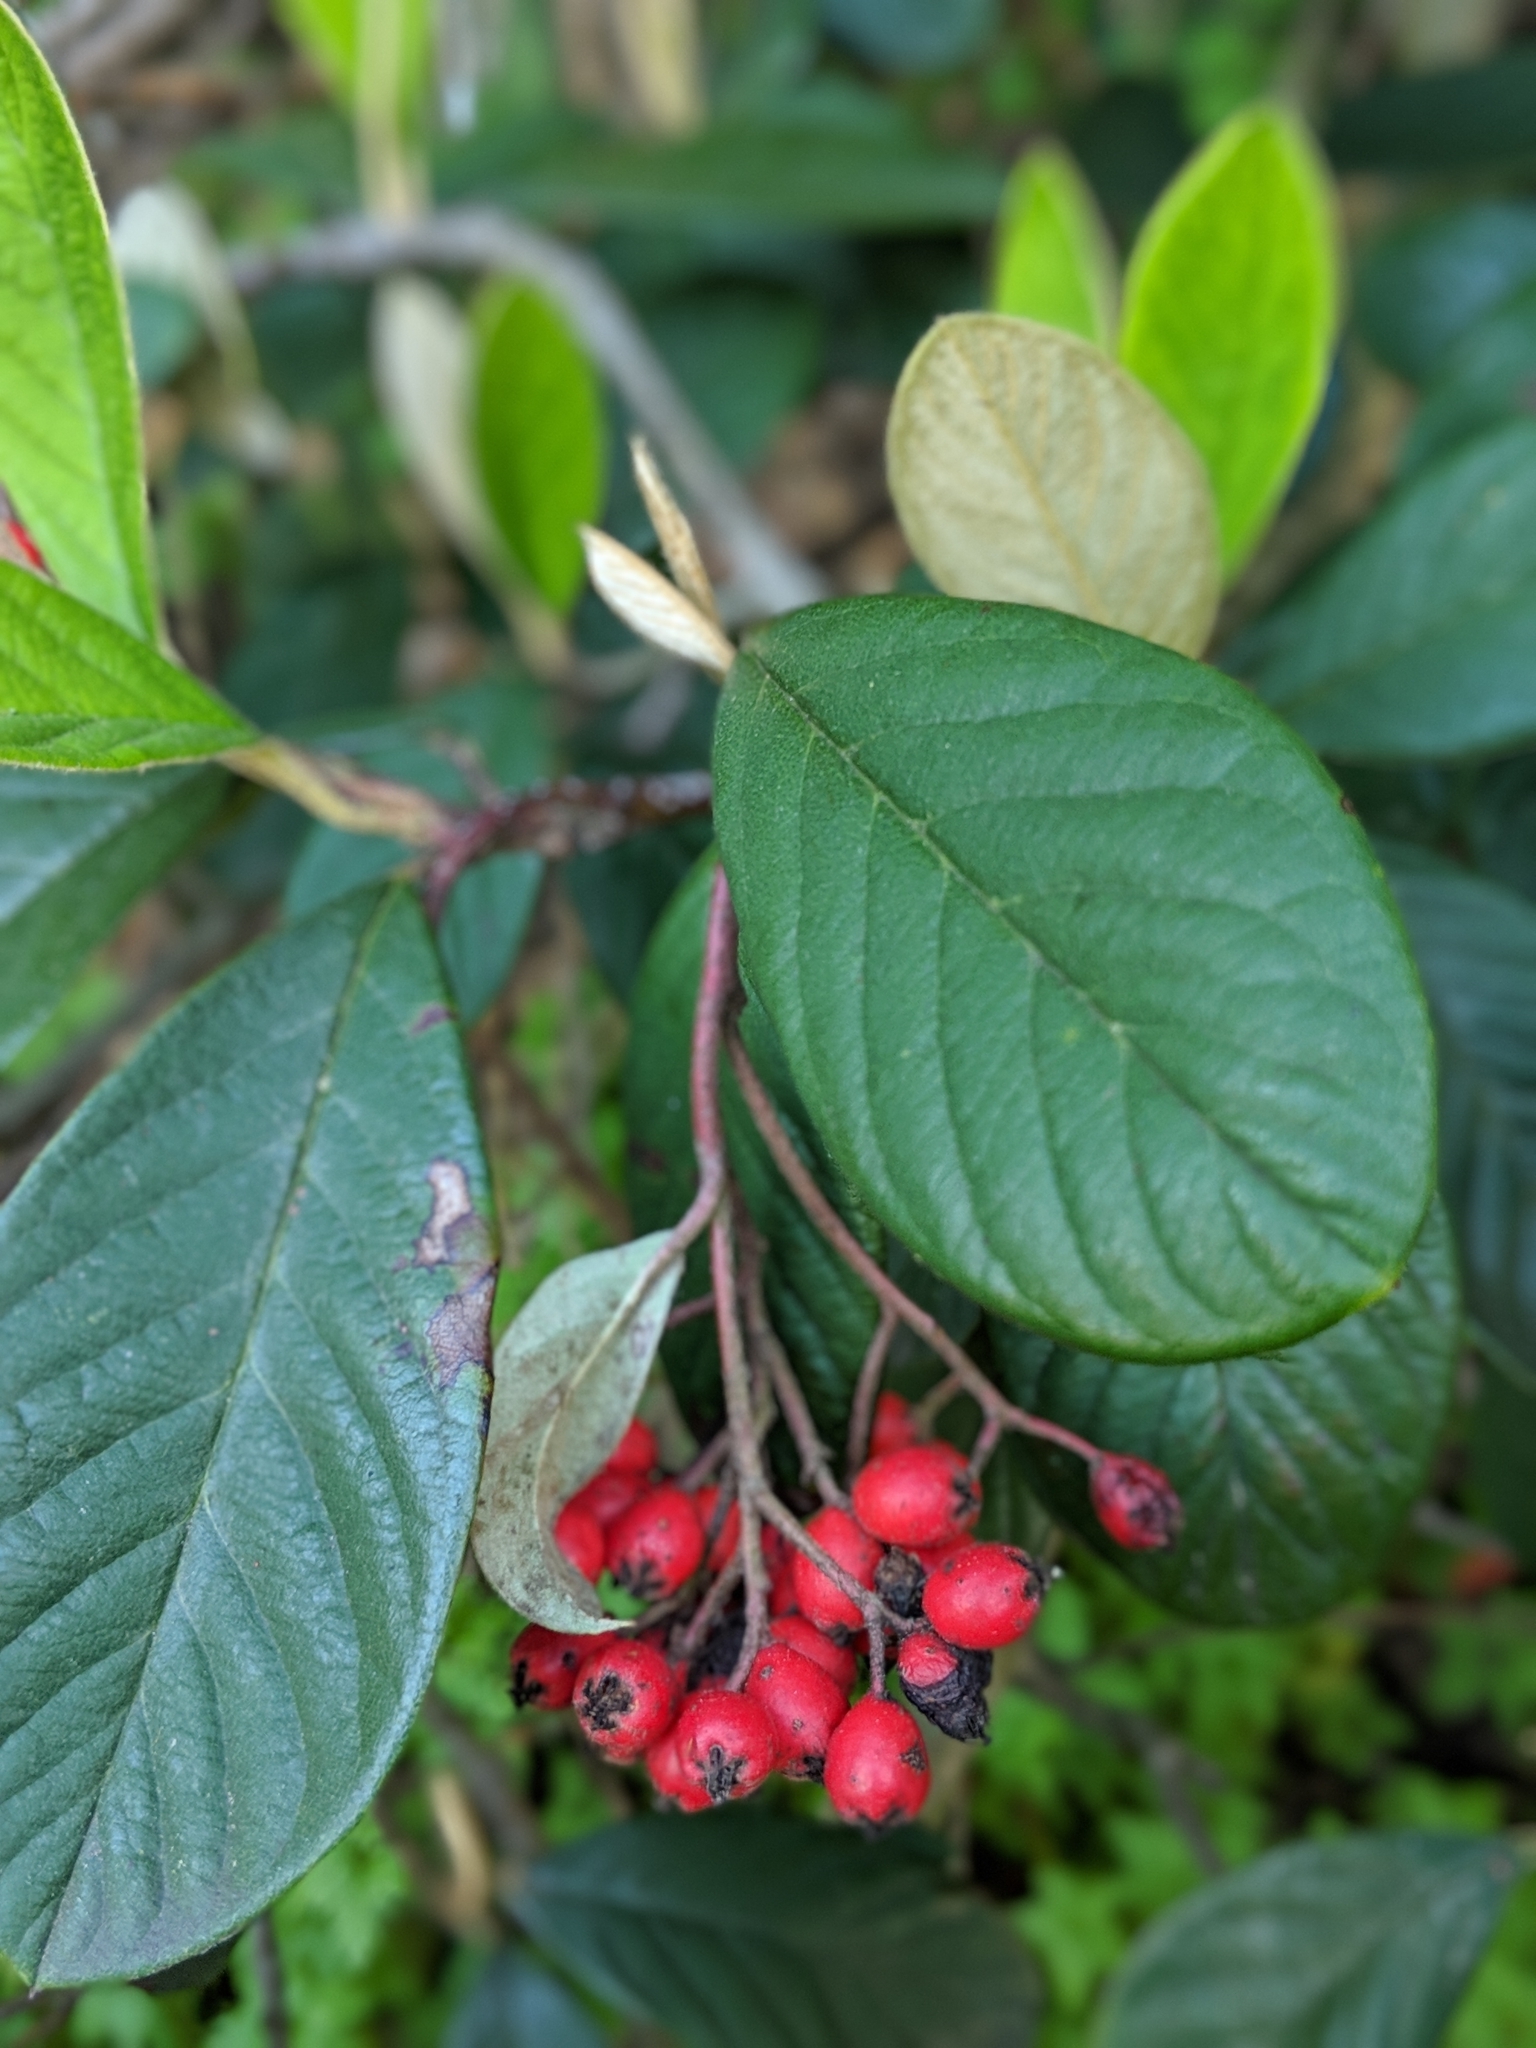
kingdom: Plantae
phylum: Tracheophyta
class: Magnoliopsida
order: Rosales
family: Rosaceae
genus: Cotoneaster
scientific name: Cotoneaster coriaceus
